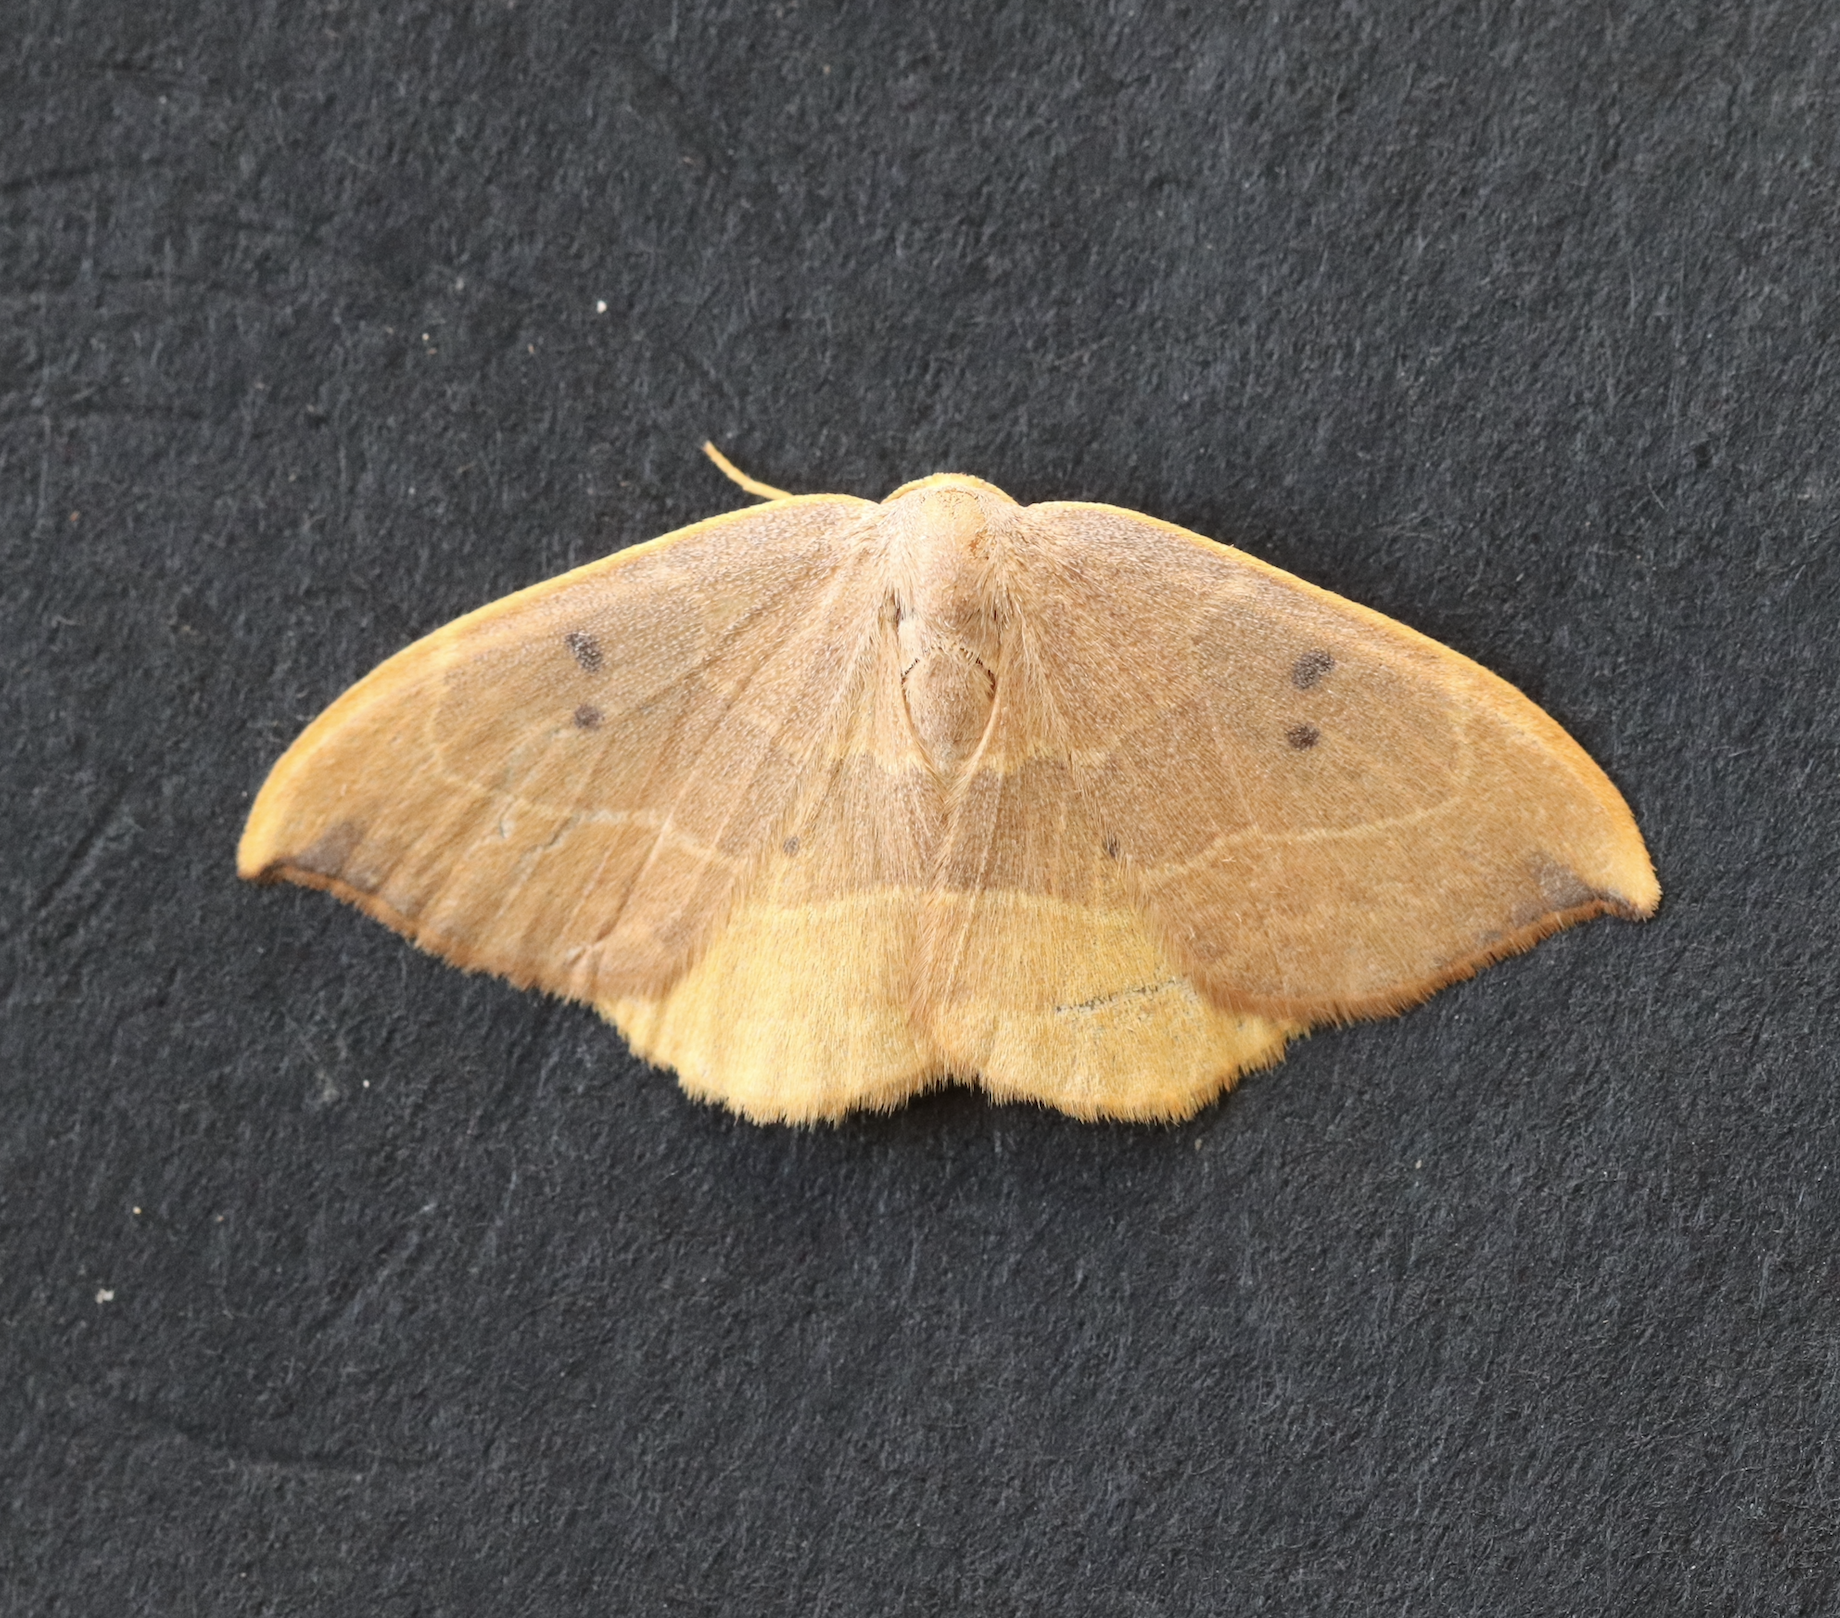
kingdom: Animalia
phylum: Arthropoda
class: Insecta
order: Lepidoptera
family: Drepanidae
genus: Watsonalla
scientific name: Watsonalla binaria
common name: Oak hook-tip
